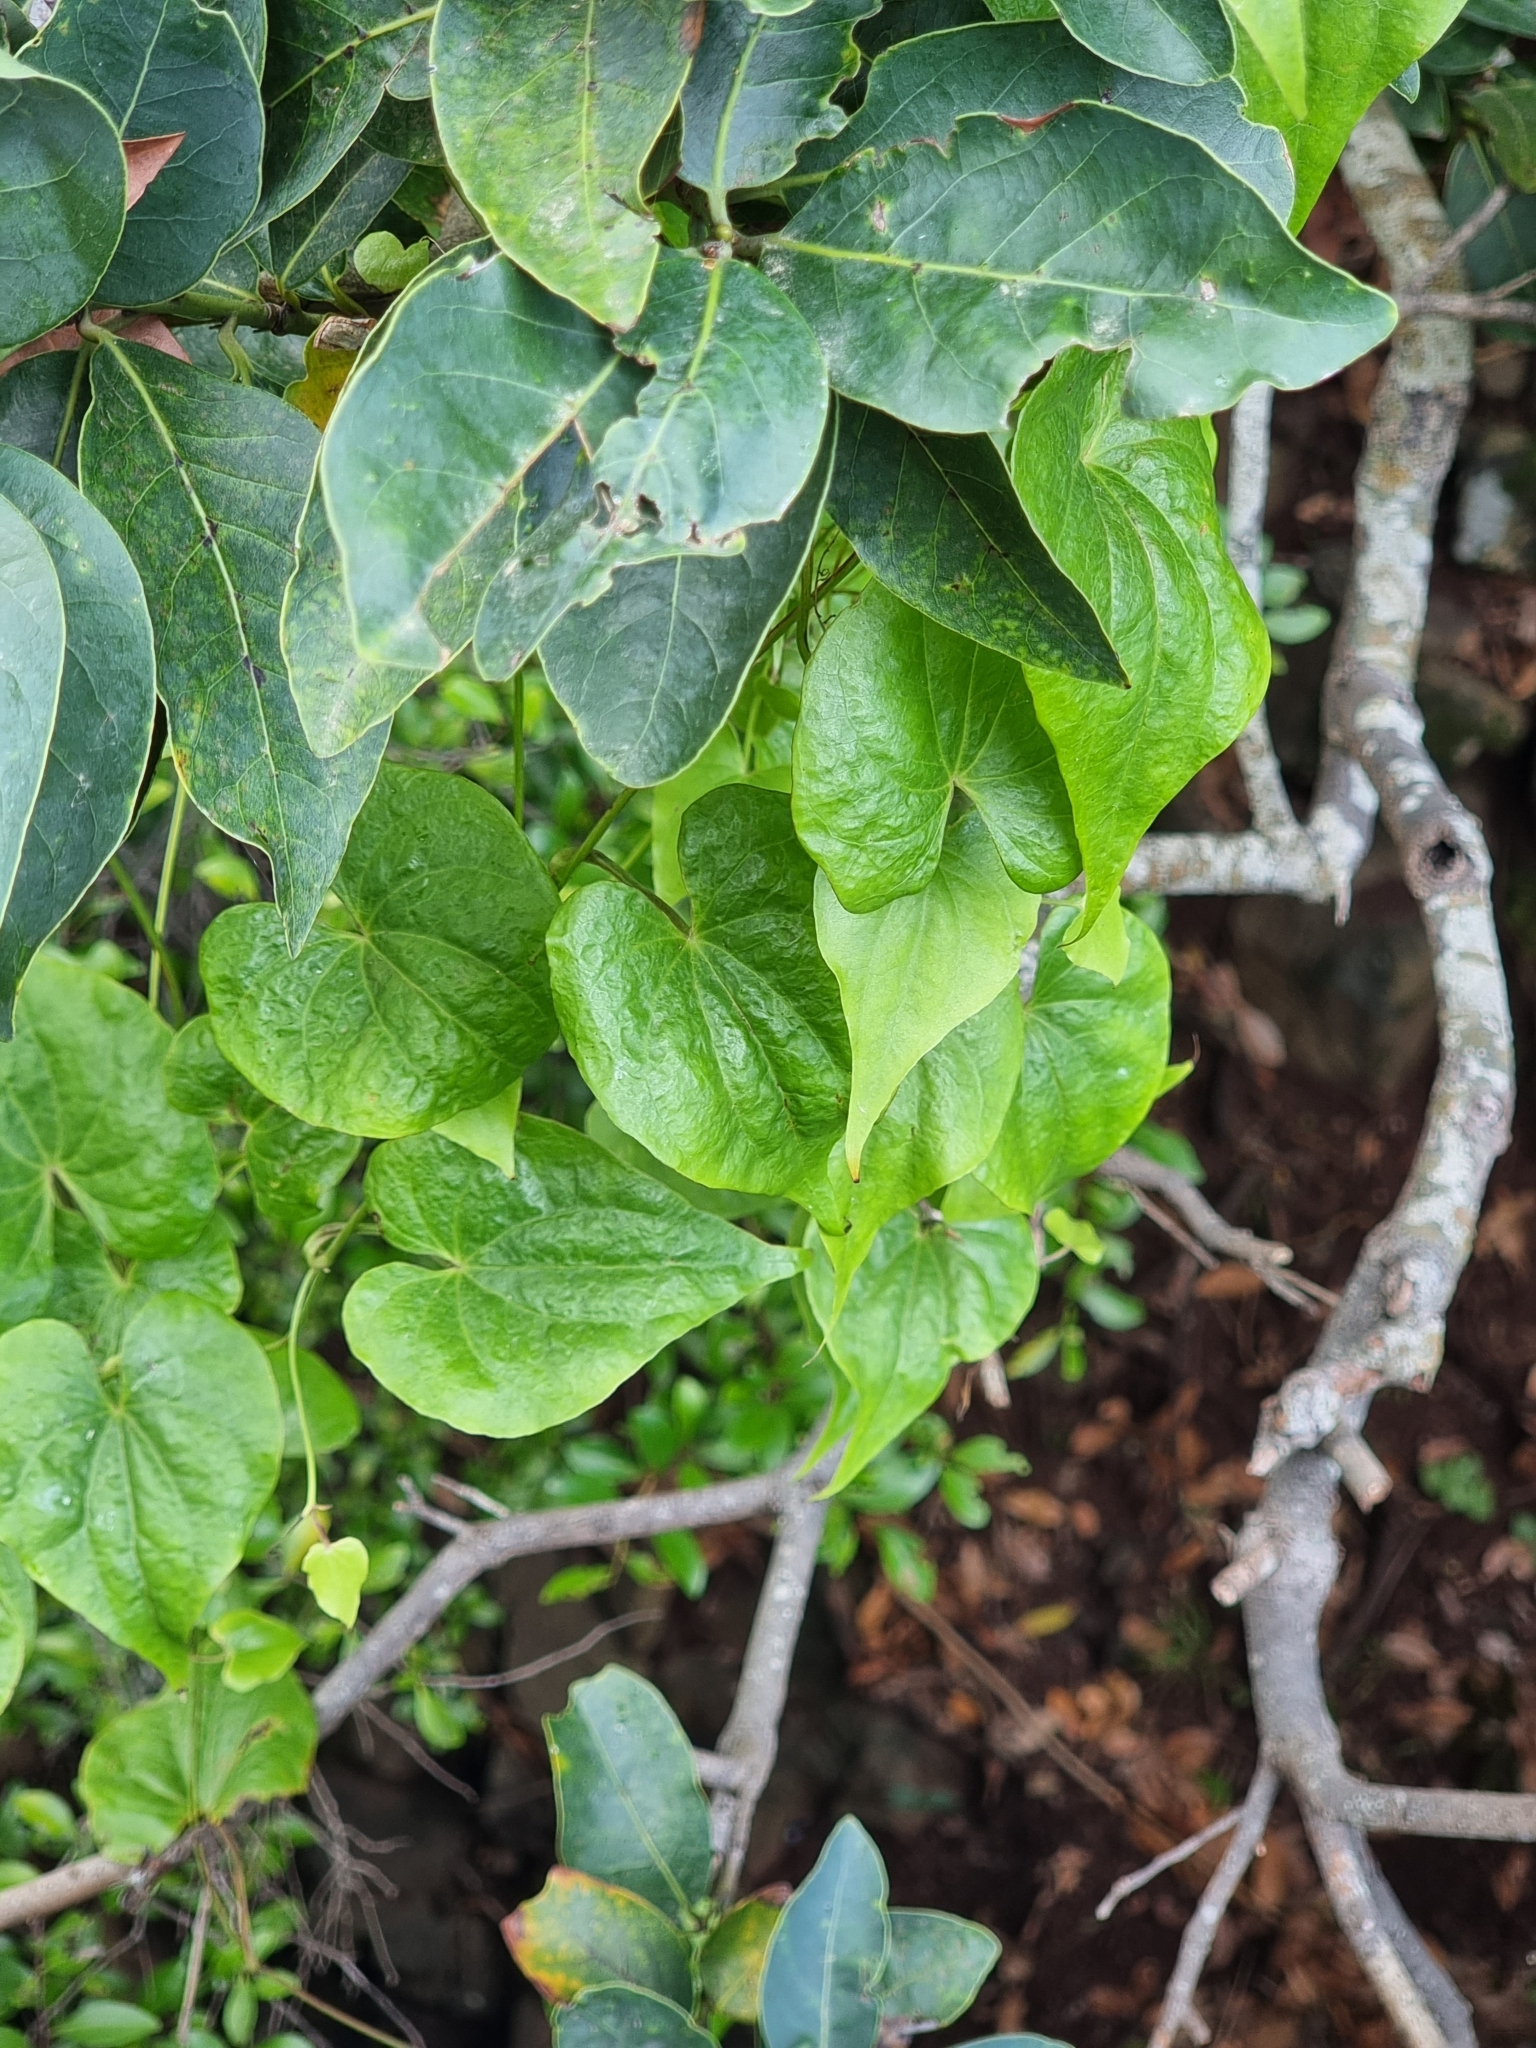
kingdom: Plantae
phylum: Tracheophyta
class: Liliopsida
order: Dioscoreales
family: Dioscoreaceae
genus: Dioscorea
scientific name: Dioscorea communis
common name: Black-bindweed
